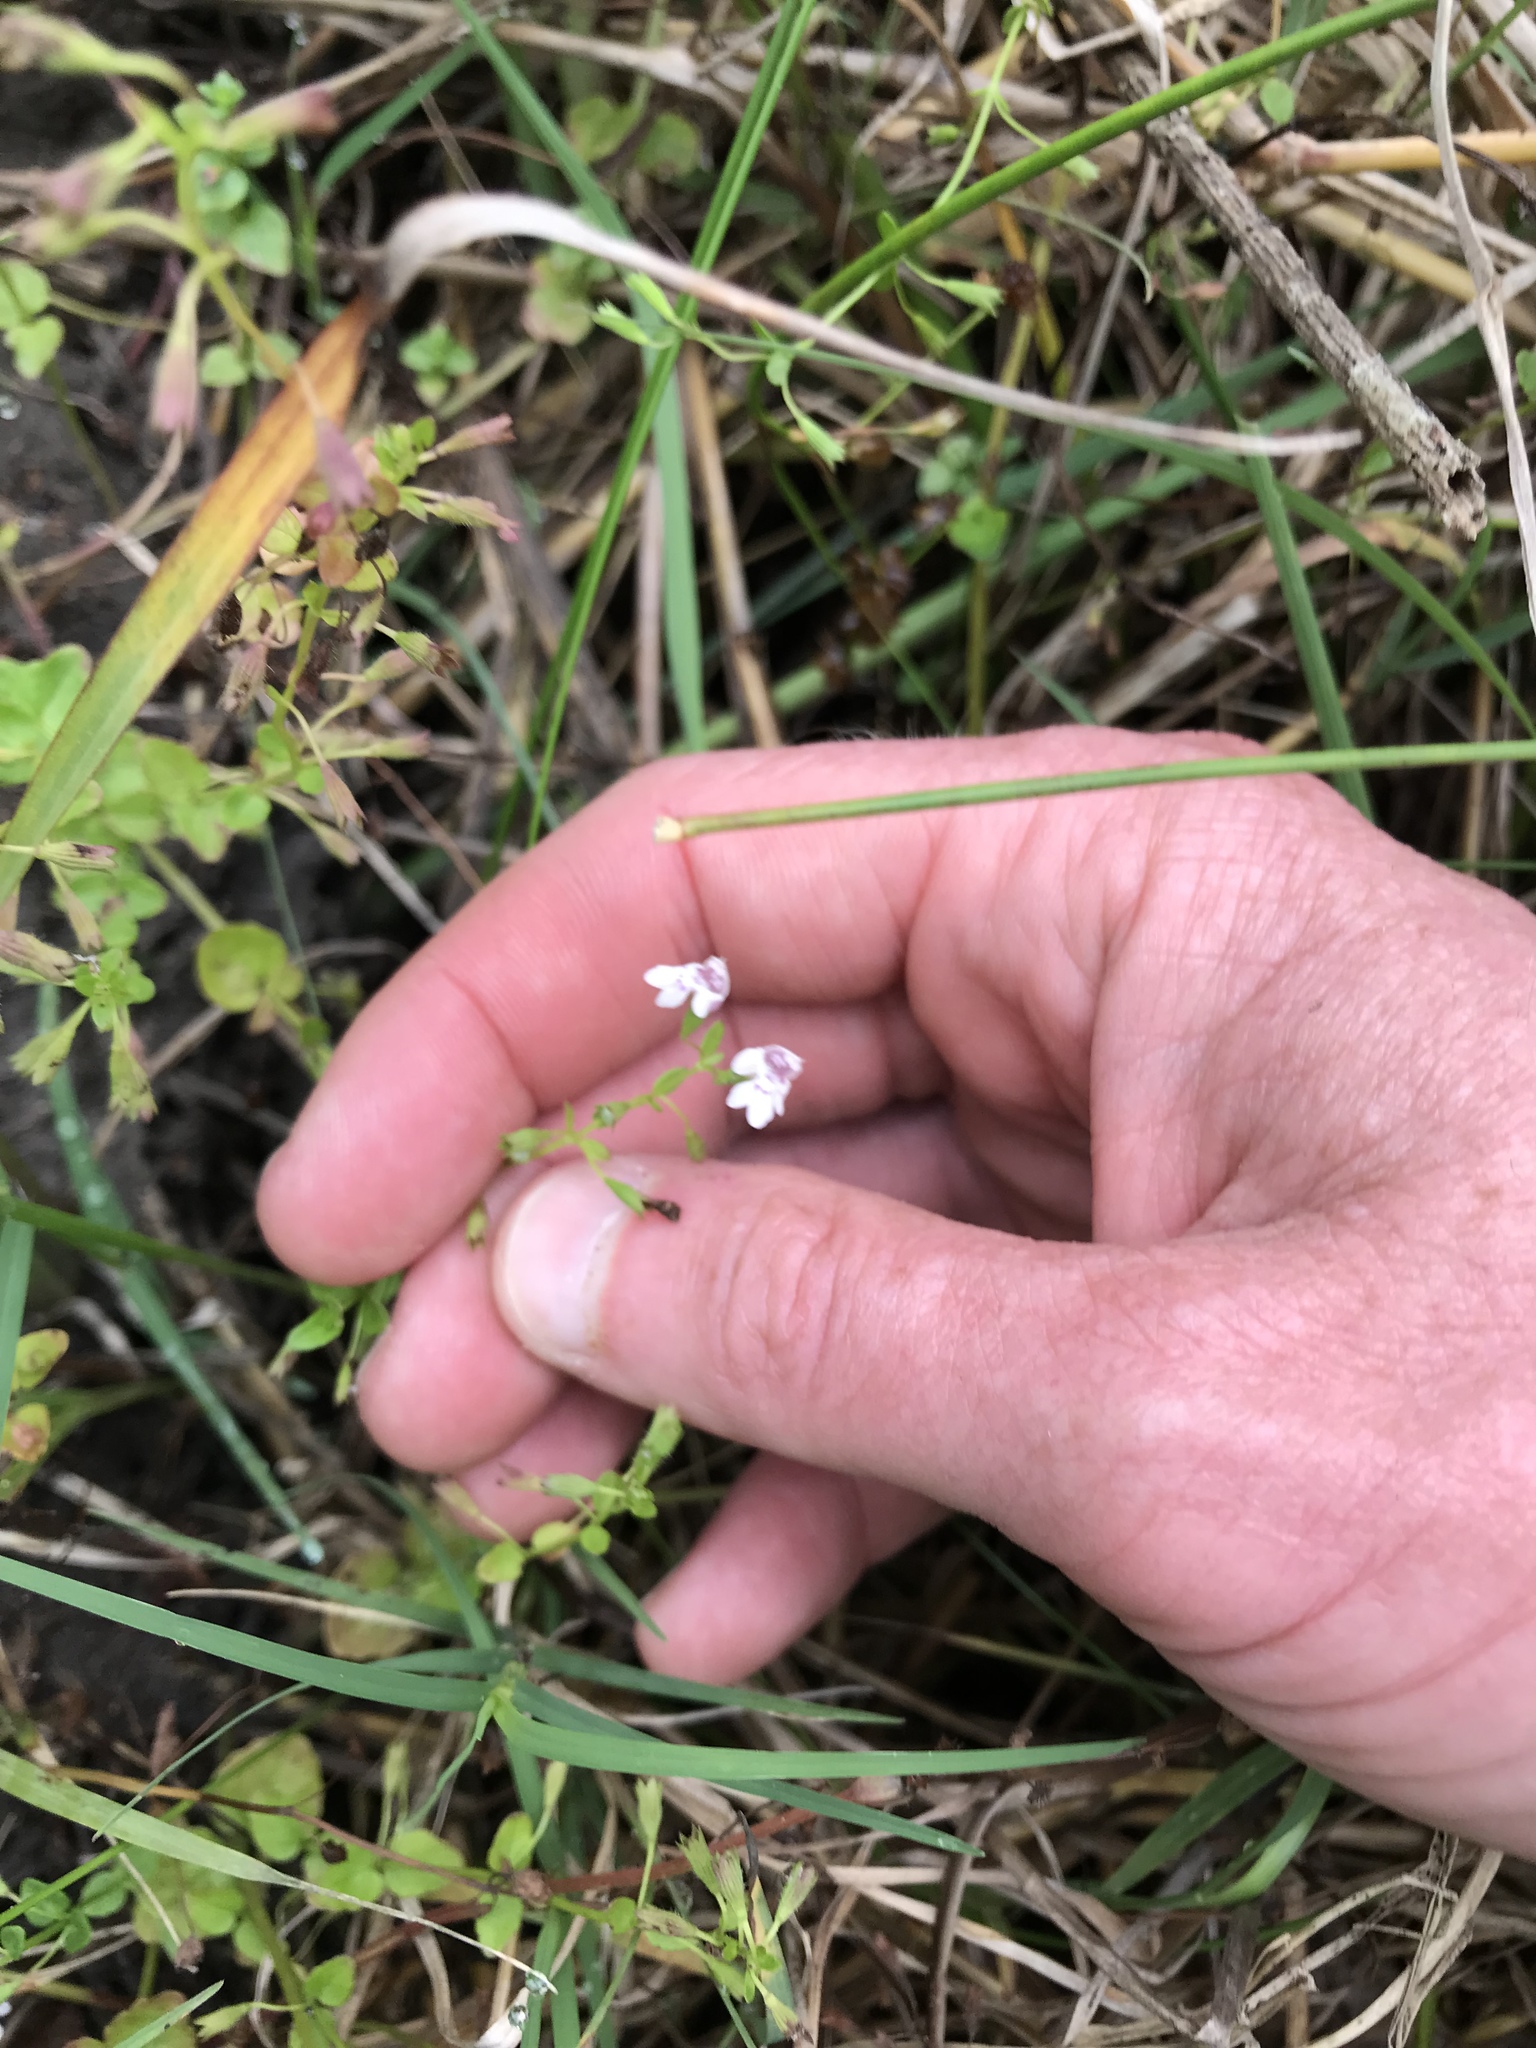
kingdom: Plantae
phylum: Tracheophyta
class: Magnoliopsida
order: Lamiales
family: Lamiaceae
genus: Clinopodium
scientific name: Clinopodium brownei
